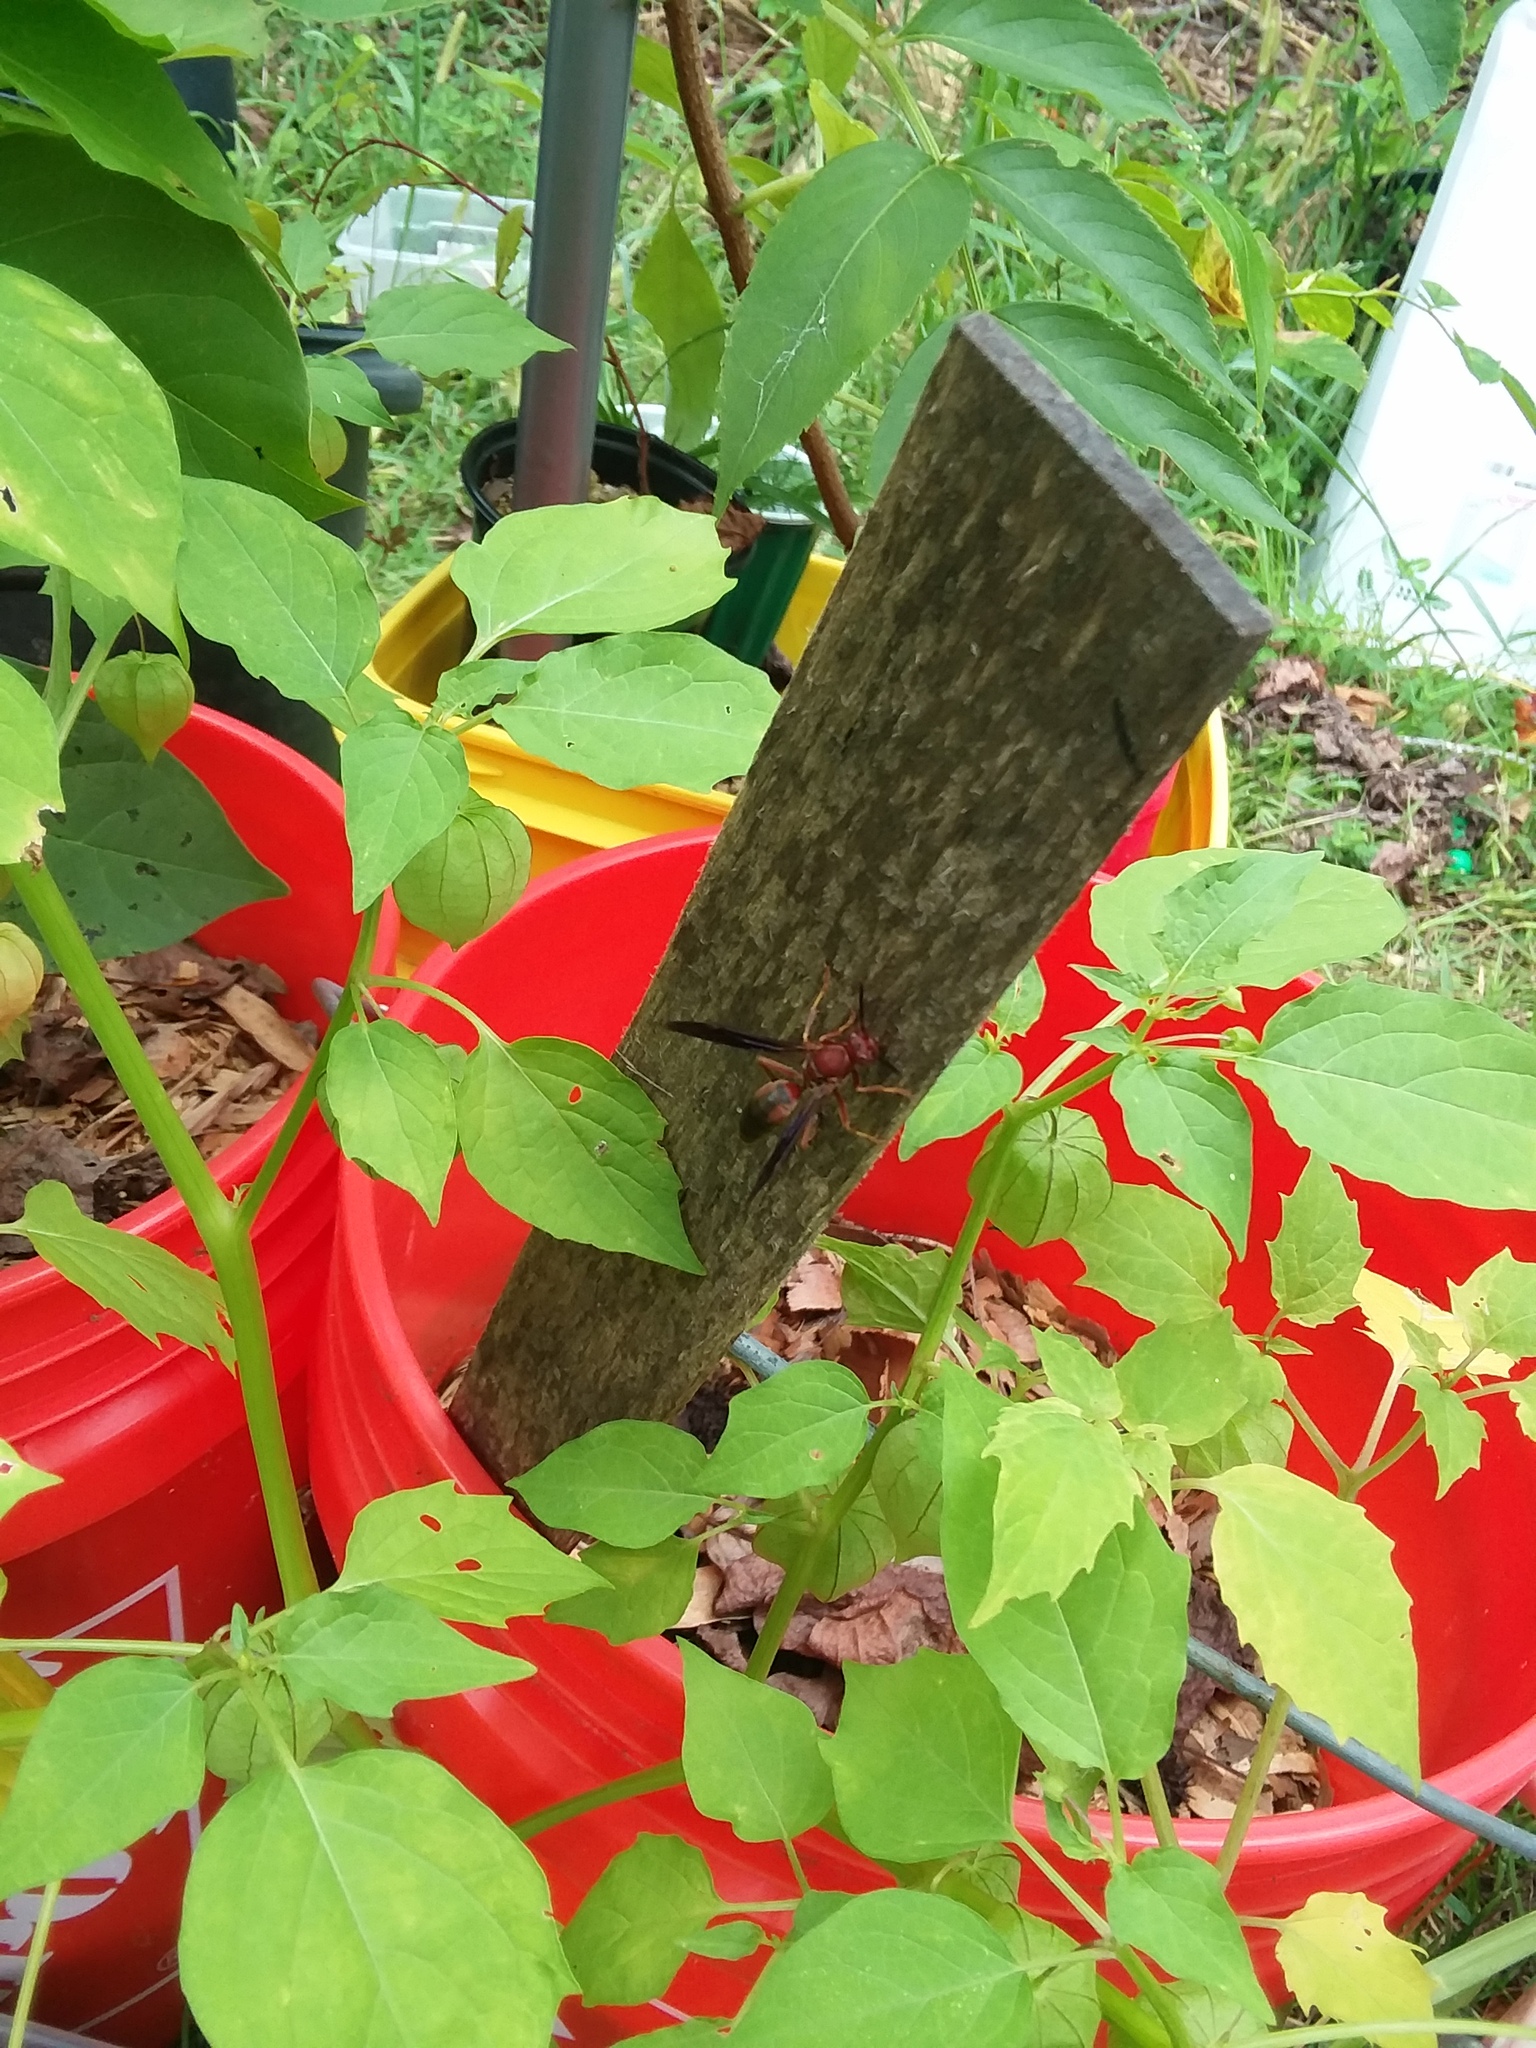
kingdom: Animalia
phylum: Arthropoda
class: Insecta
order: Hymenoptera
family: Eumenidae
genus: Polistes
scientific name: Polistes metricus
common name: Metric paper wasp
